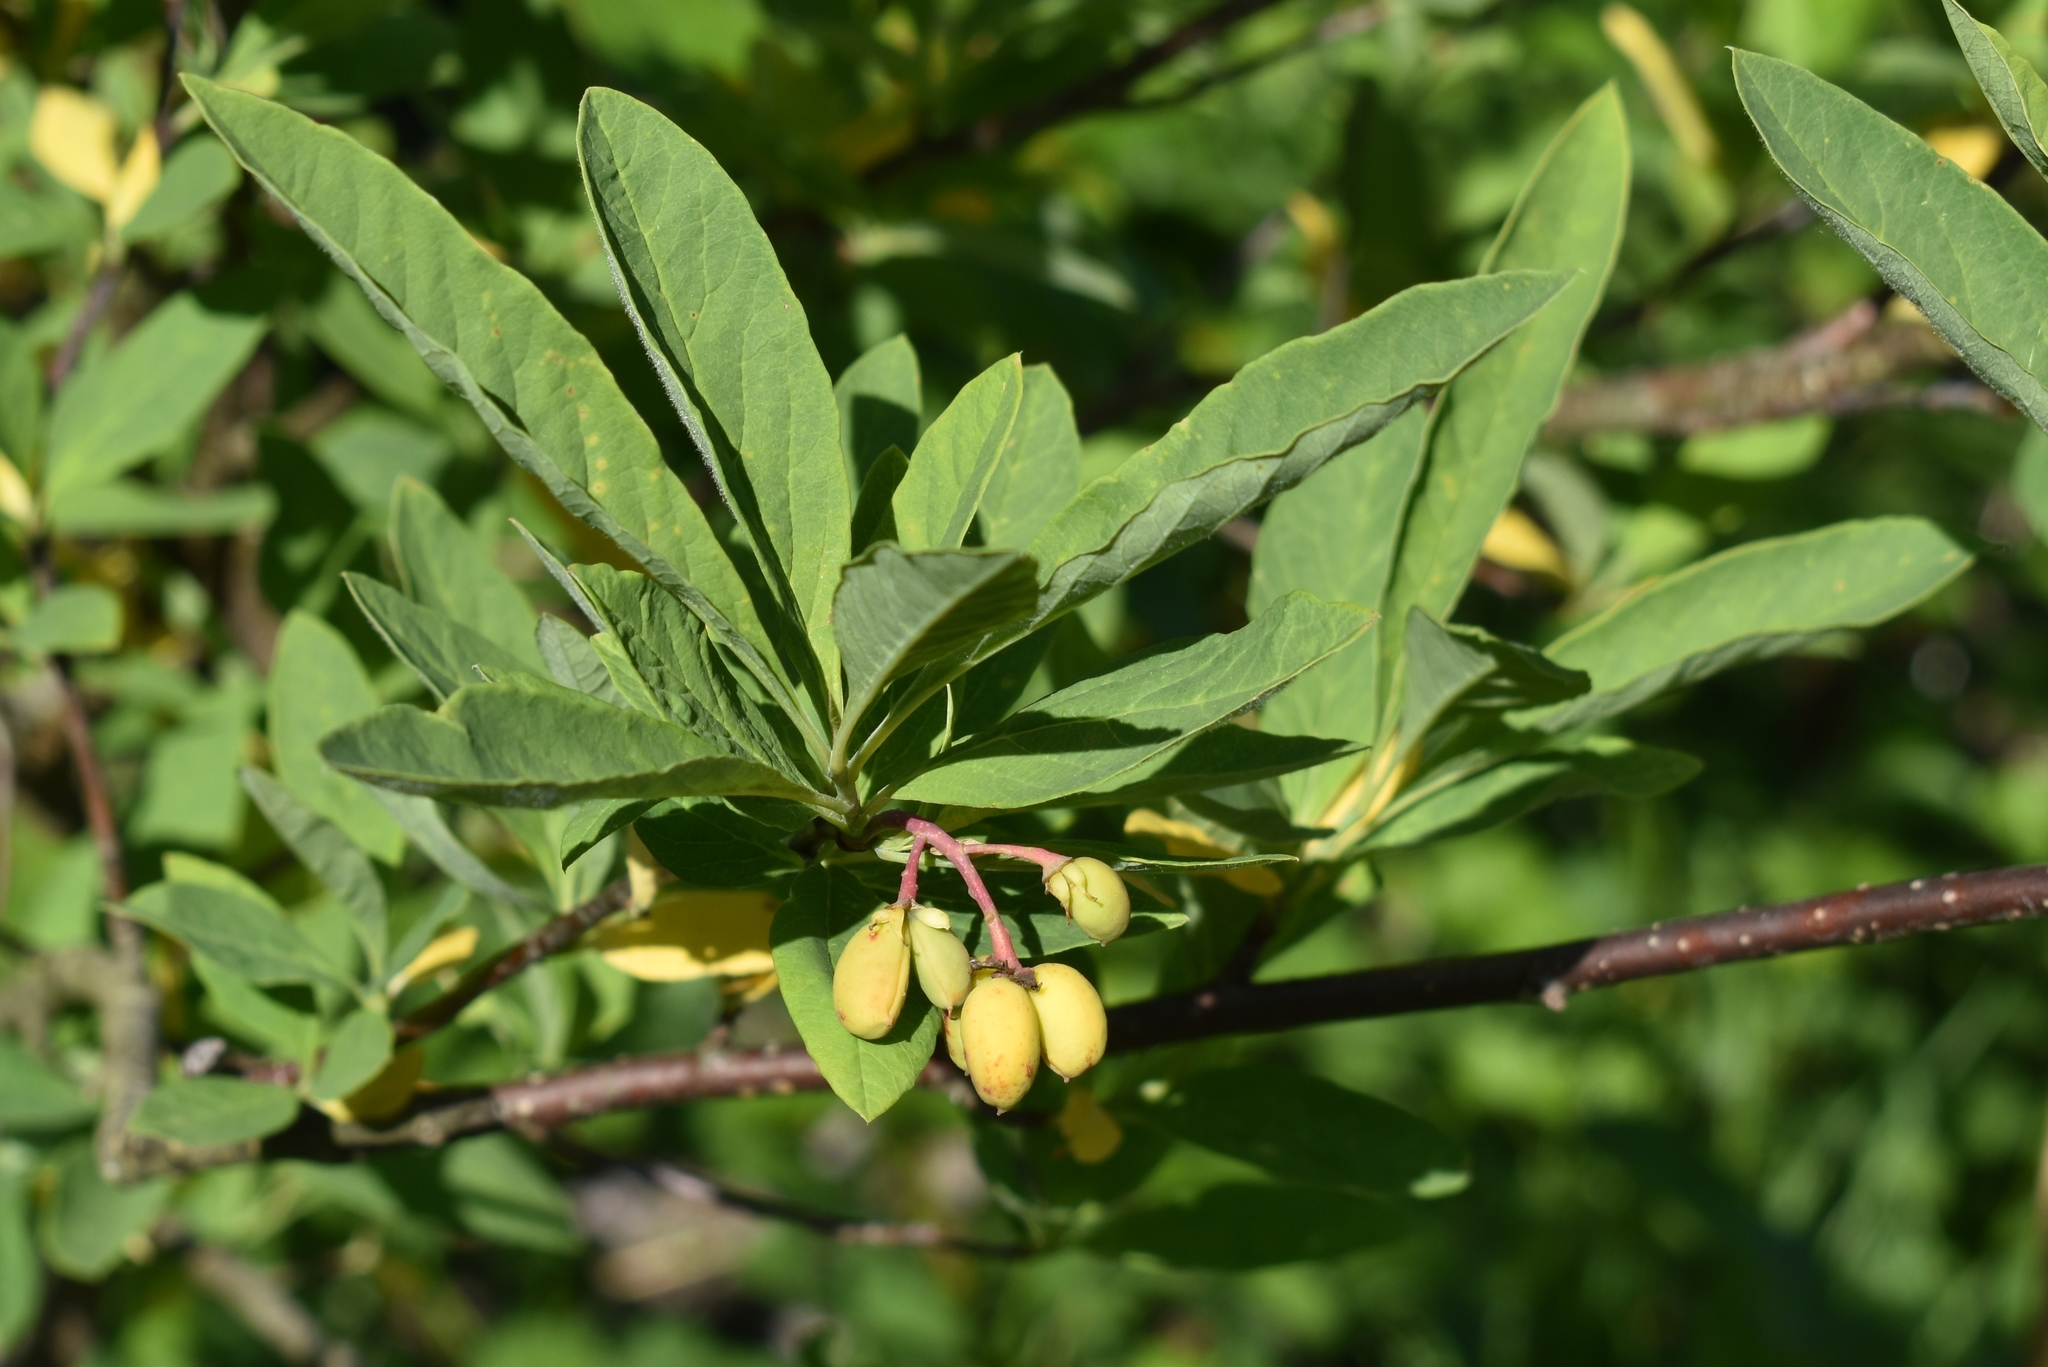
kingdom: Plantae
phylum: Tracheophyta
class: Magnoliopsida
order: Rosales
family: Rosaceae
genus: Oemleria
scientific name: Oemleria cerasiformis
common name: Osoberry
